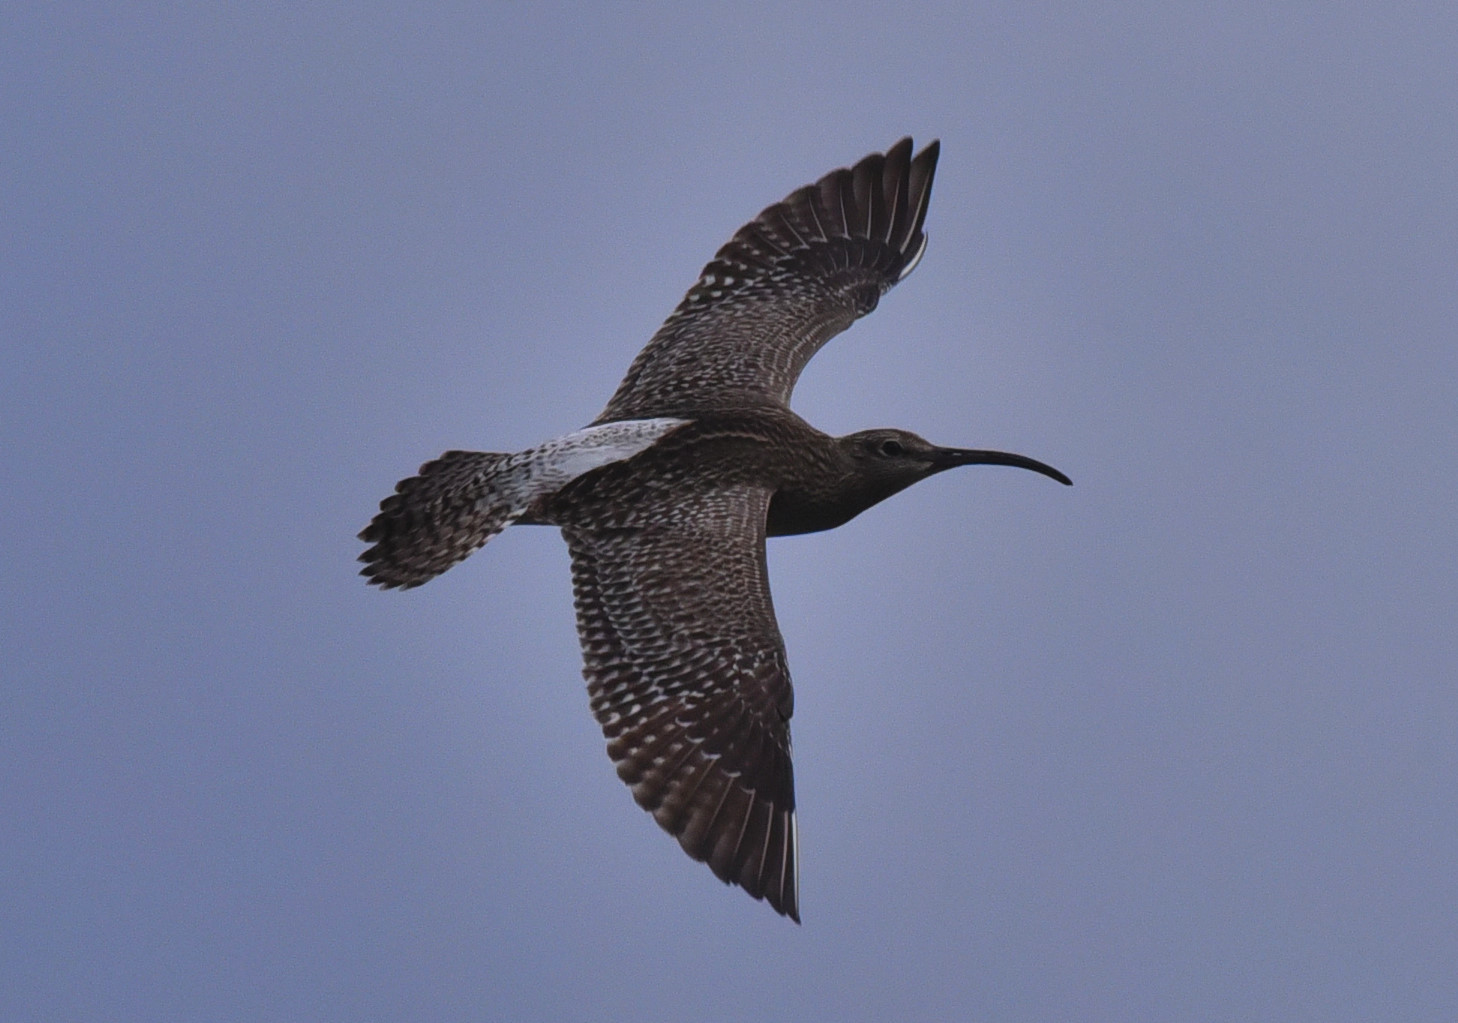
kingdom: Animalia
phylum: Chordata
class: Aves
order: Charadriiformes
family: Scolopacidae
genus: Numenius
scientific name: Numenius phaeopus
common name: Whimbrel
